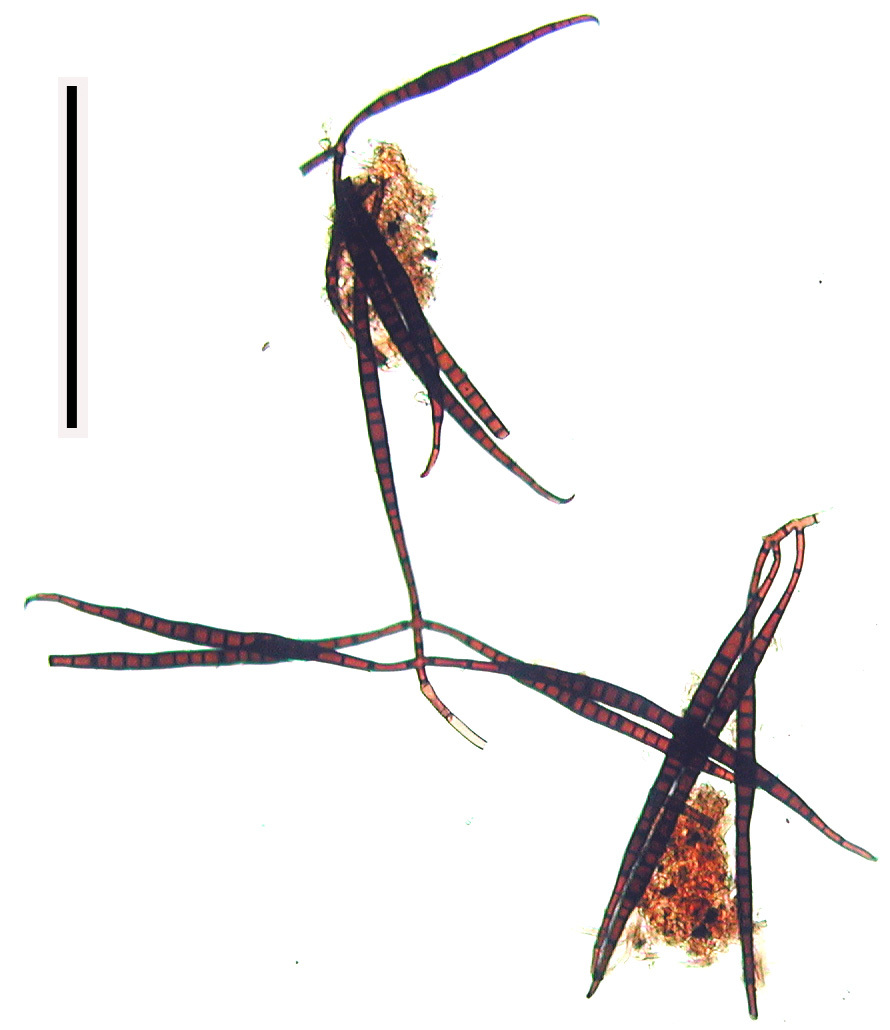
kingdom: Fungi
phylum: Ascomycota
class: Leotiomycetes
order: Helotiales
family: Dermateaceae
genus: Casaresia
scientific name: Casaresia sphagnorum
